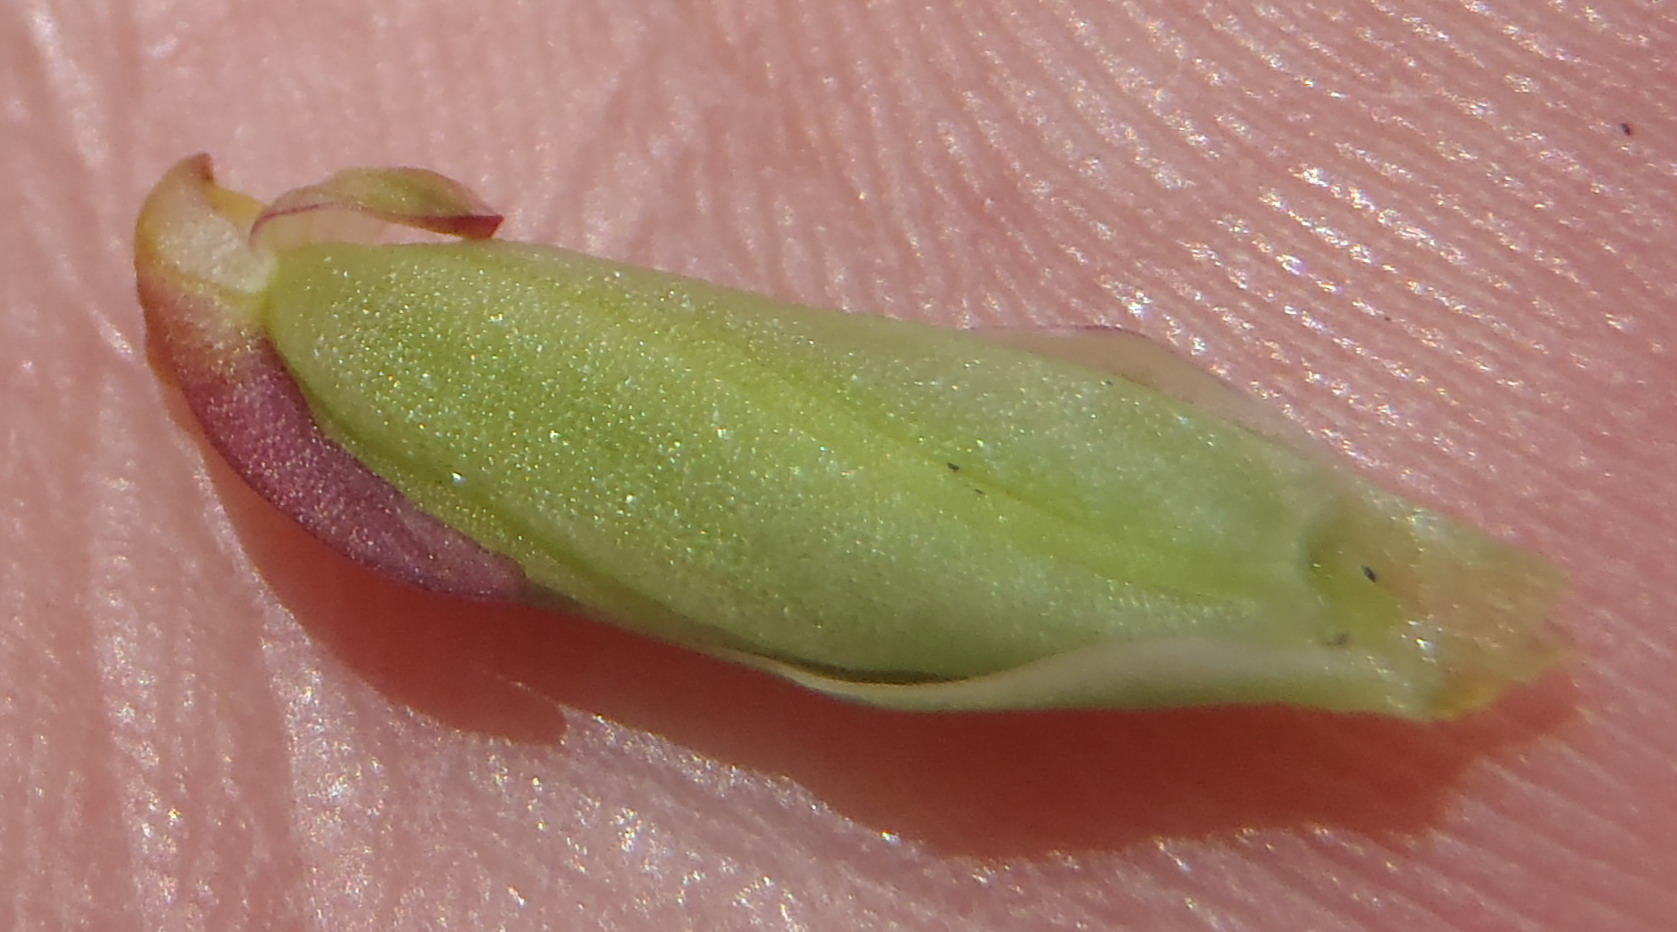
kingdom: Plantae
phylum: Tracheophyta
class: Liliopsida
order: Asparagales
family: Orchidaceae
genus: Disa
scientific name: Disa bracteata
